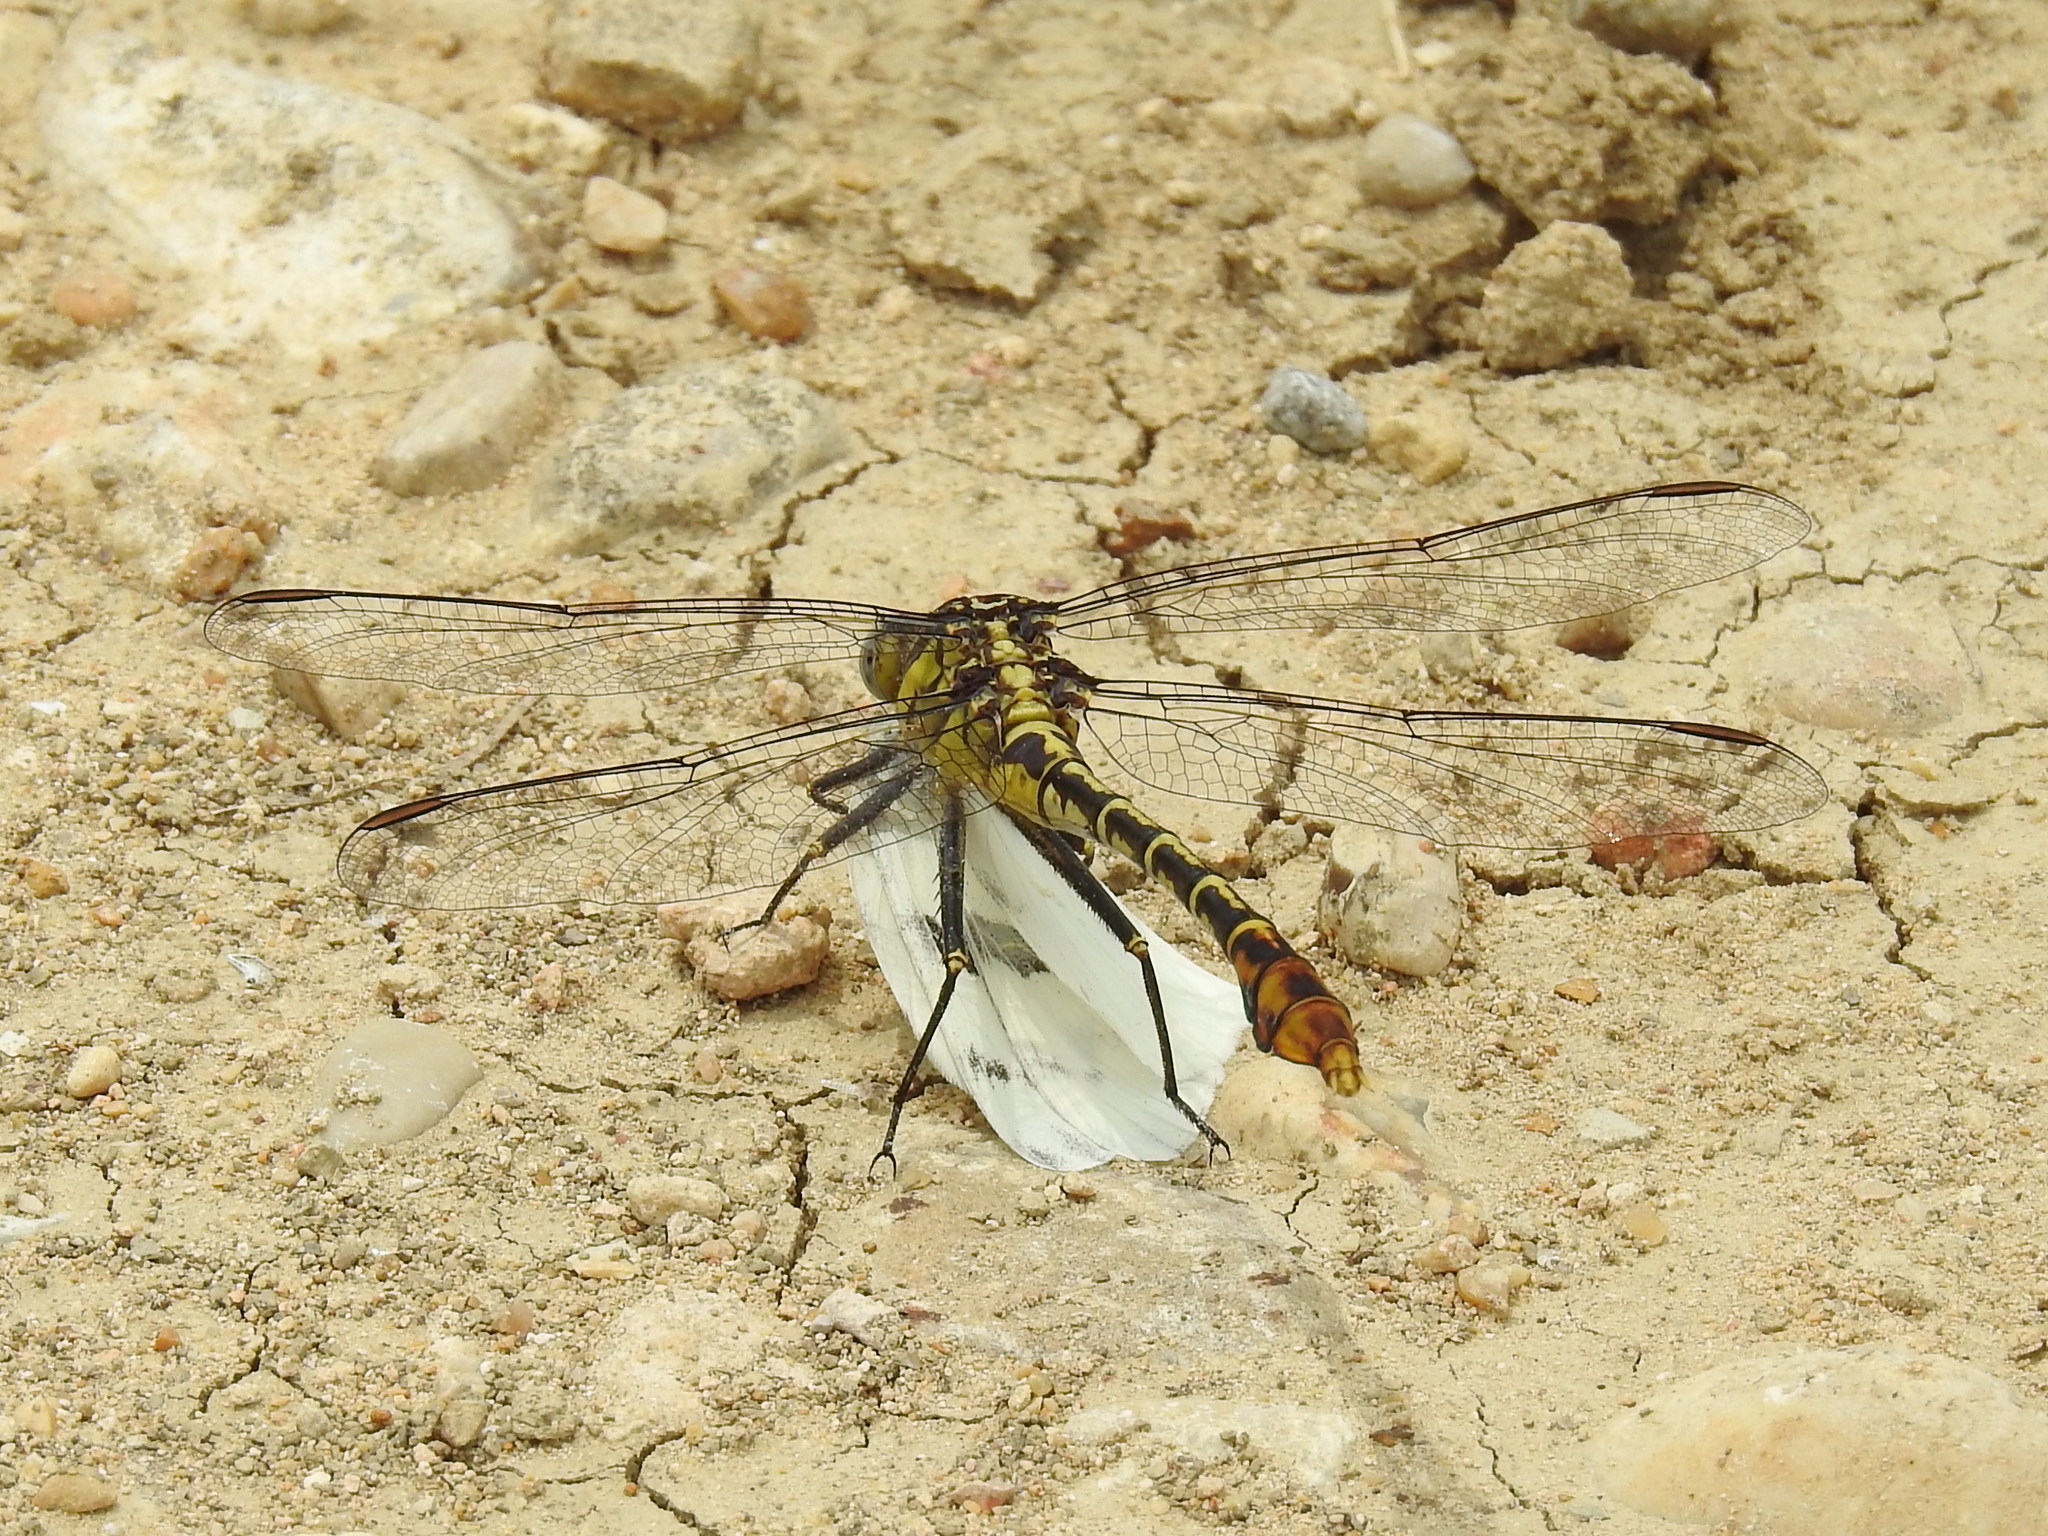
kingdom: Animalia
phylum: Arthropoda
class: Insecta
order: Odonata
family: Gomphidae
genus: Dromogomphus
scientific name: Dromogomphus spoliatus
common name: Flag-tailed spinyleg
